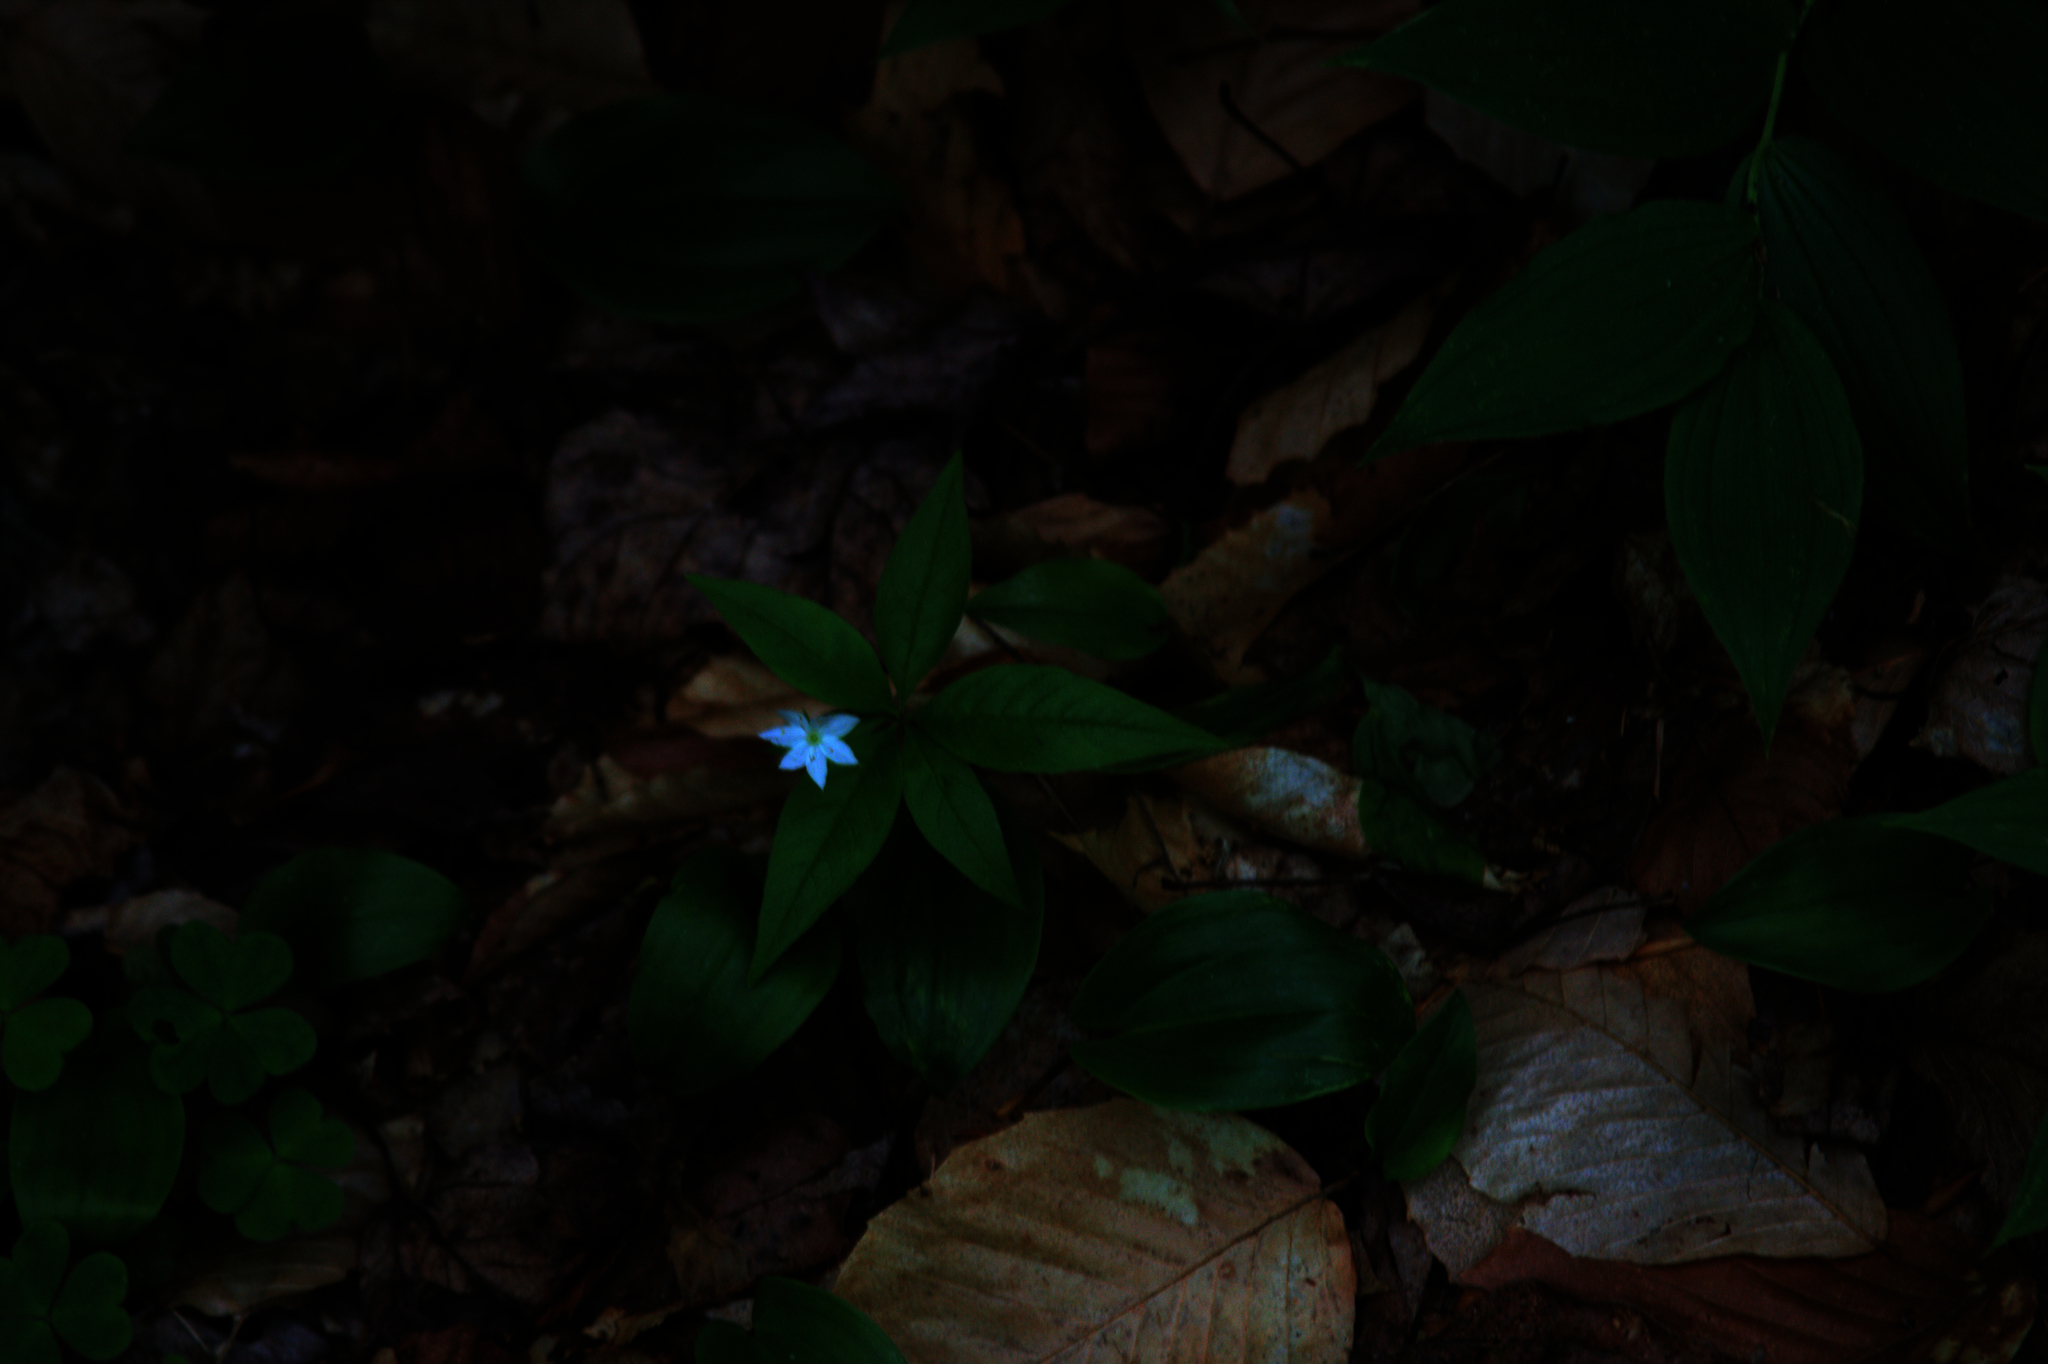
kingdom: Plantae
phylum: Tracheophyta
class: Magnoliopsida
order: Ericales
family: Primulaceae
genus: Lysimachia
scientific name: Lysimachia borealis
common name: American starflower
